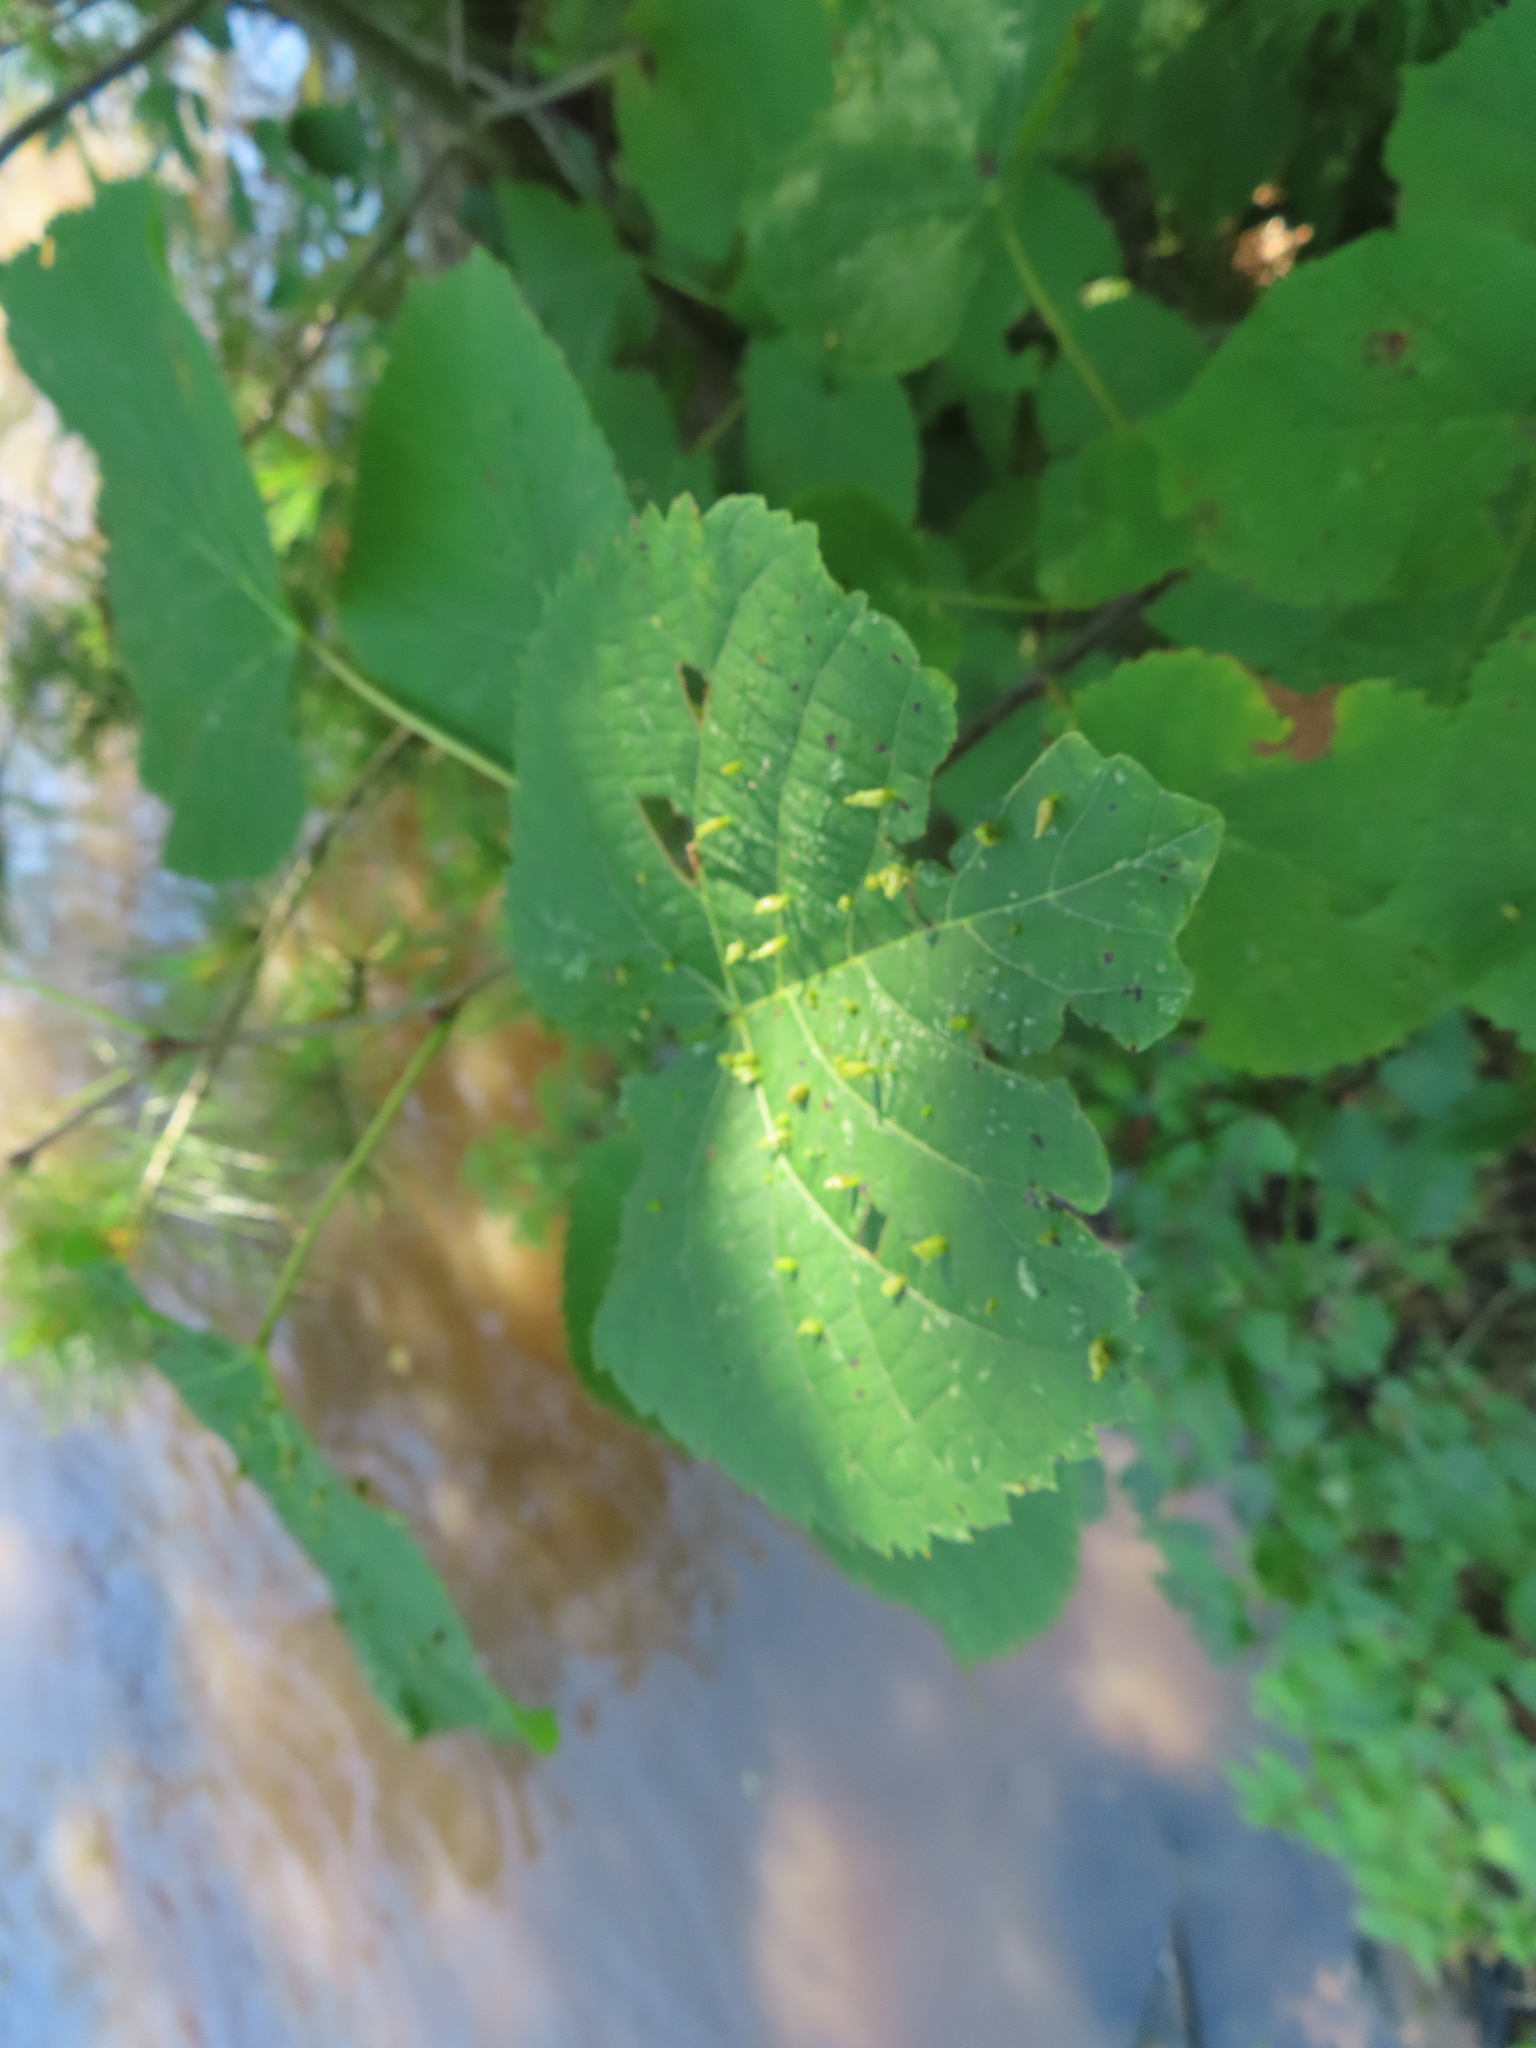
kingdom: Animalia
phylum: Arthropoda
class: Arachnida
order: Trombidiformes
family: Eriophyidae
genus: Eriophyes
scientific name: Eriophyes tiliae
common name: Red nail gall mite
